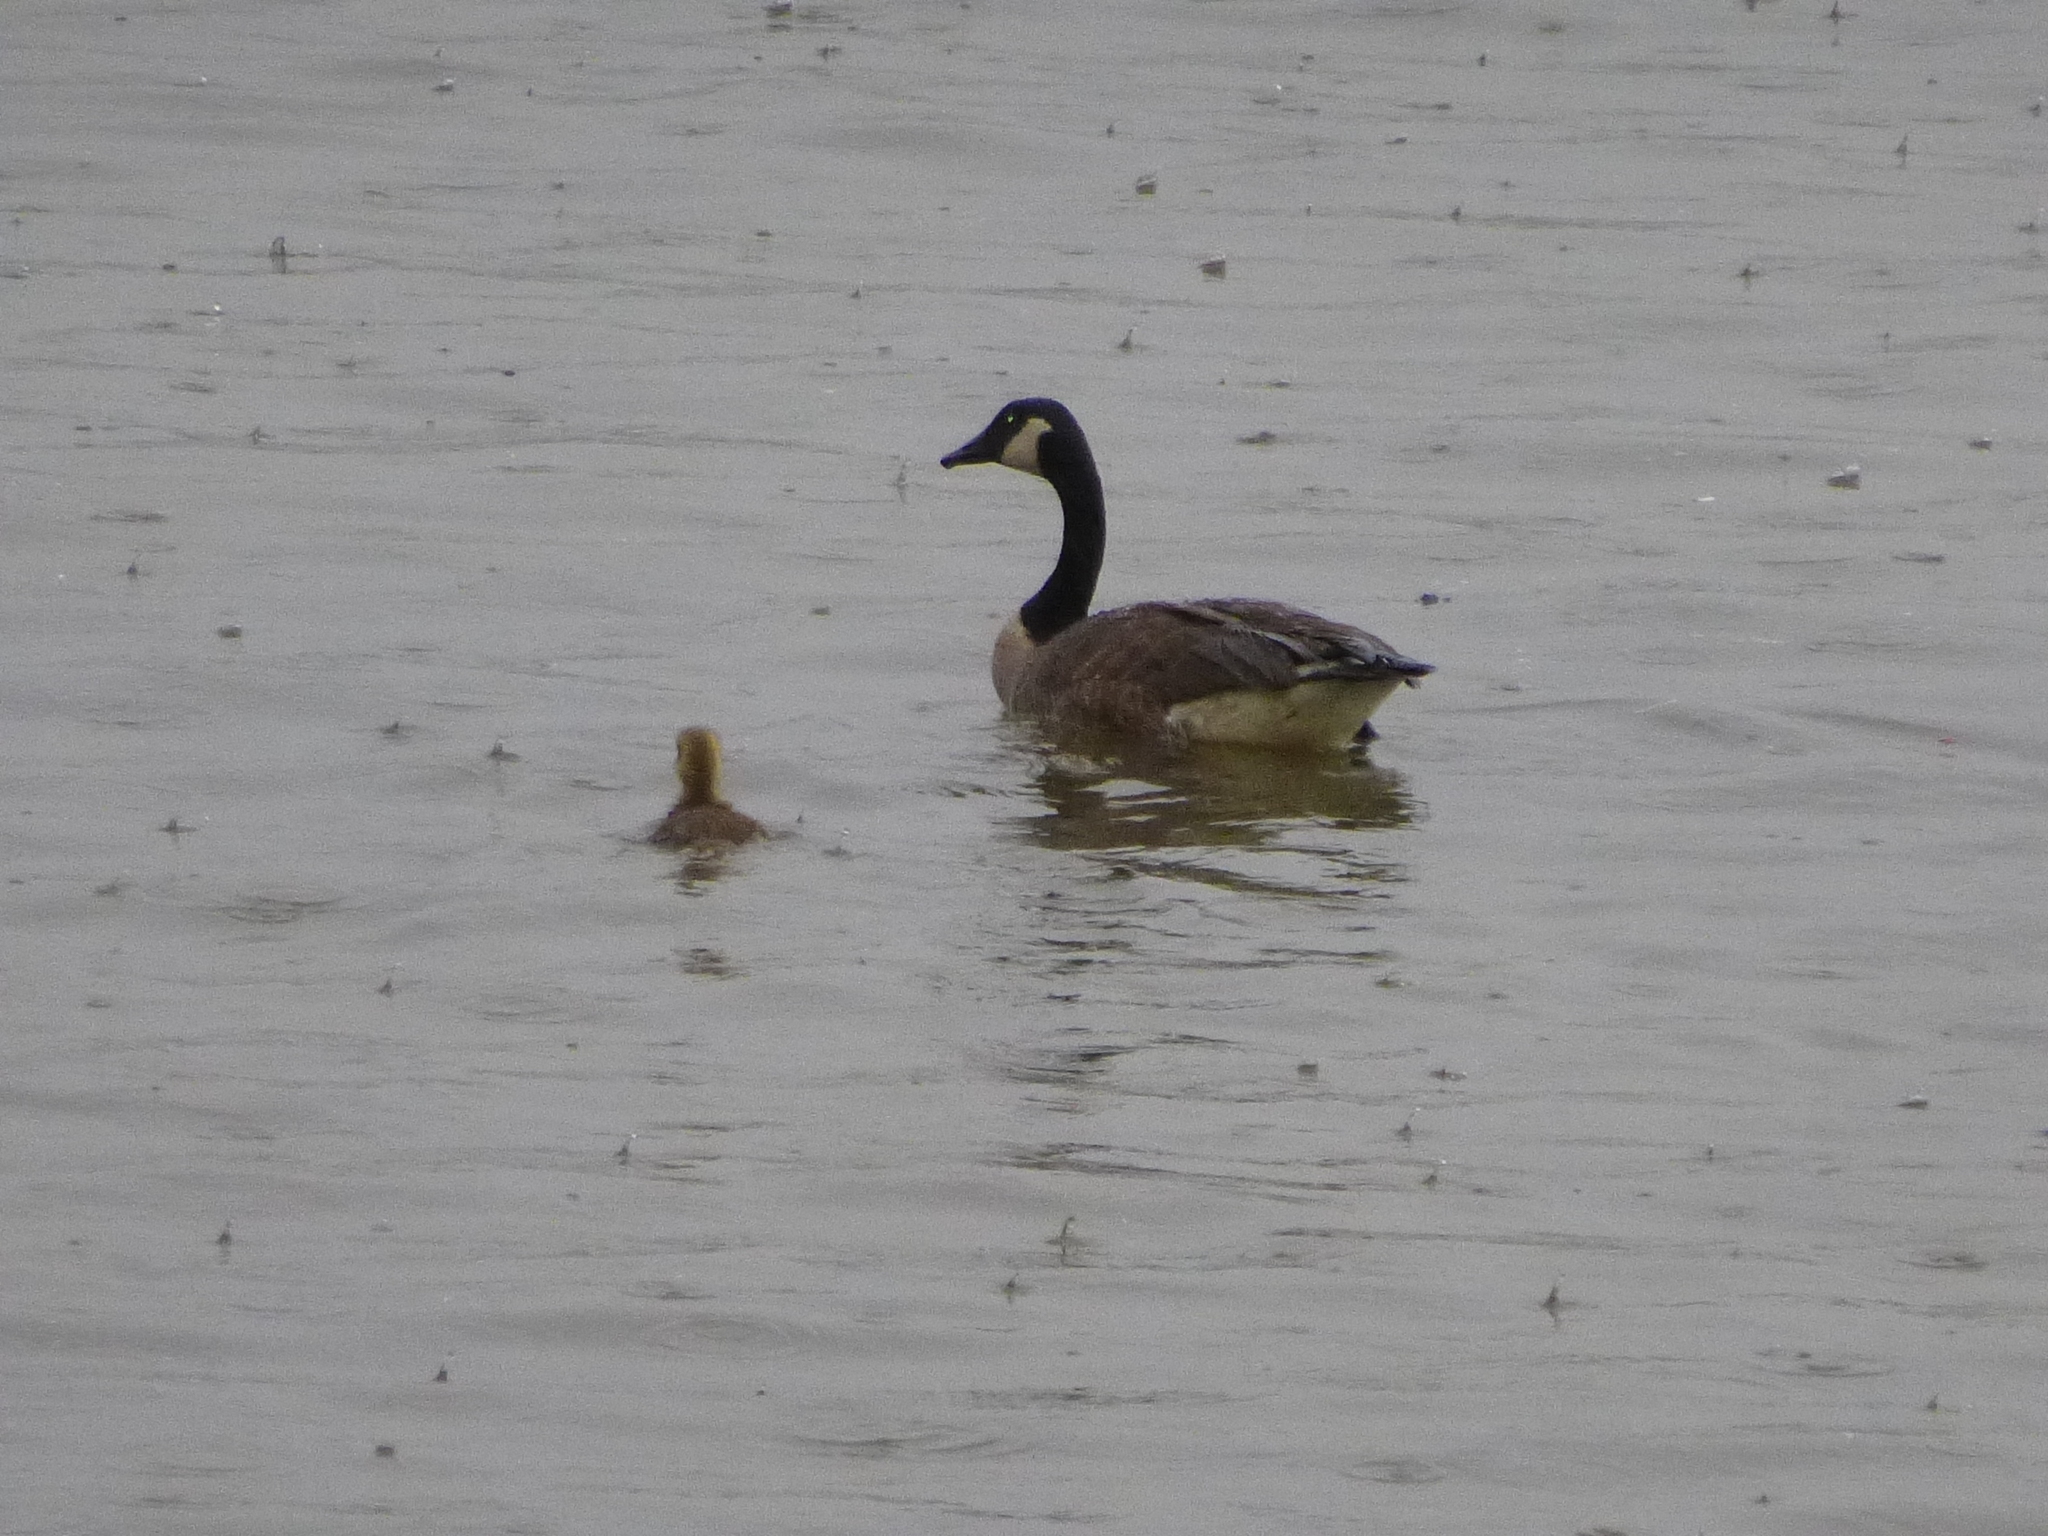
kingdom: Animalia
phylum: Chordata
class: Aves
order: Anseriformes
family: Anatidae
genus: Branta
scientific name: Branta canadensis
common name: Canada goose
